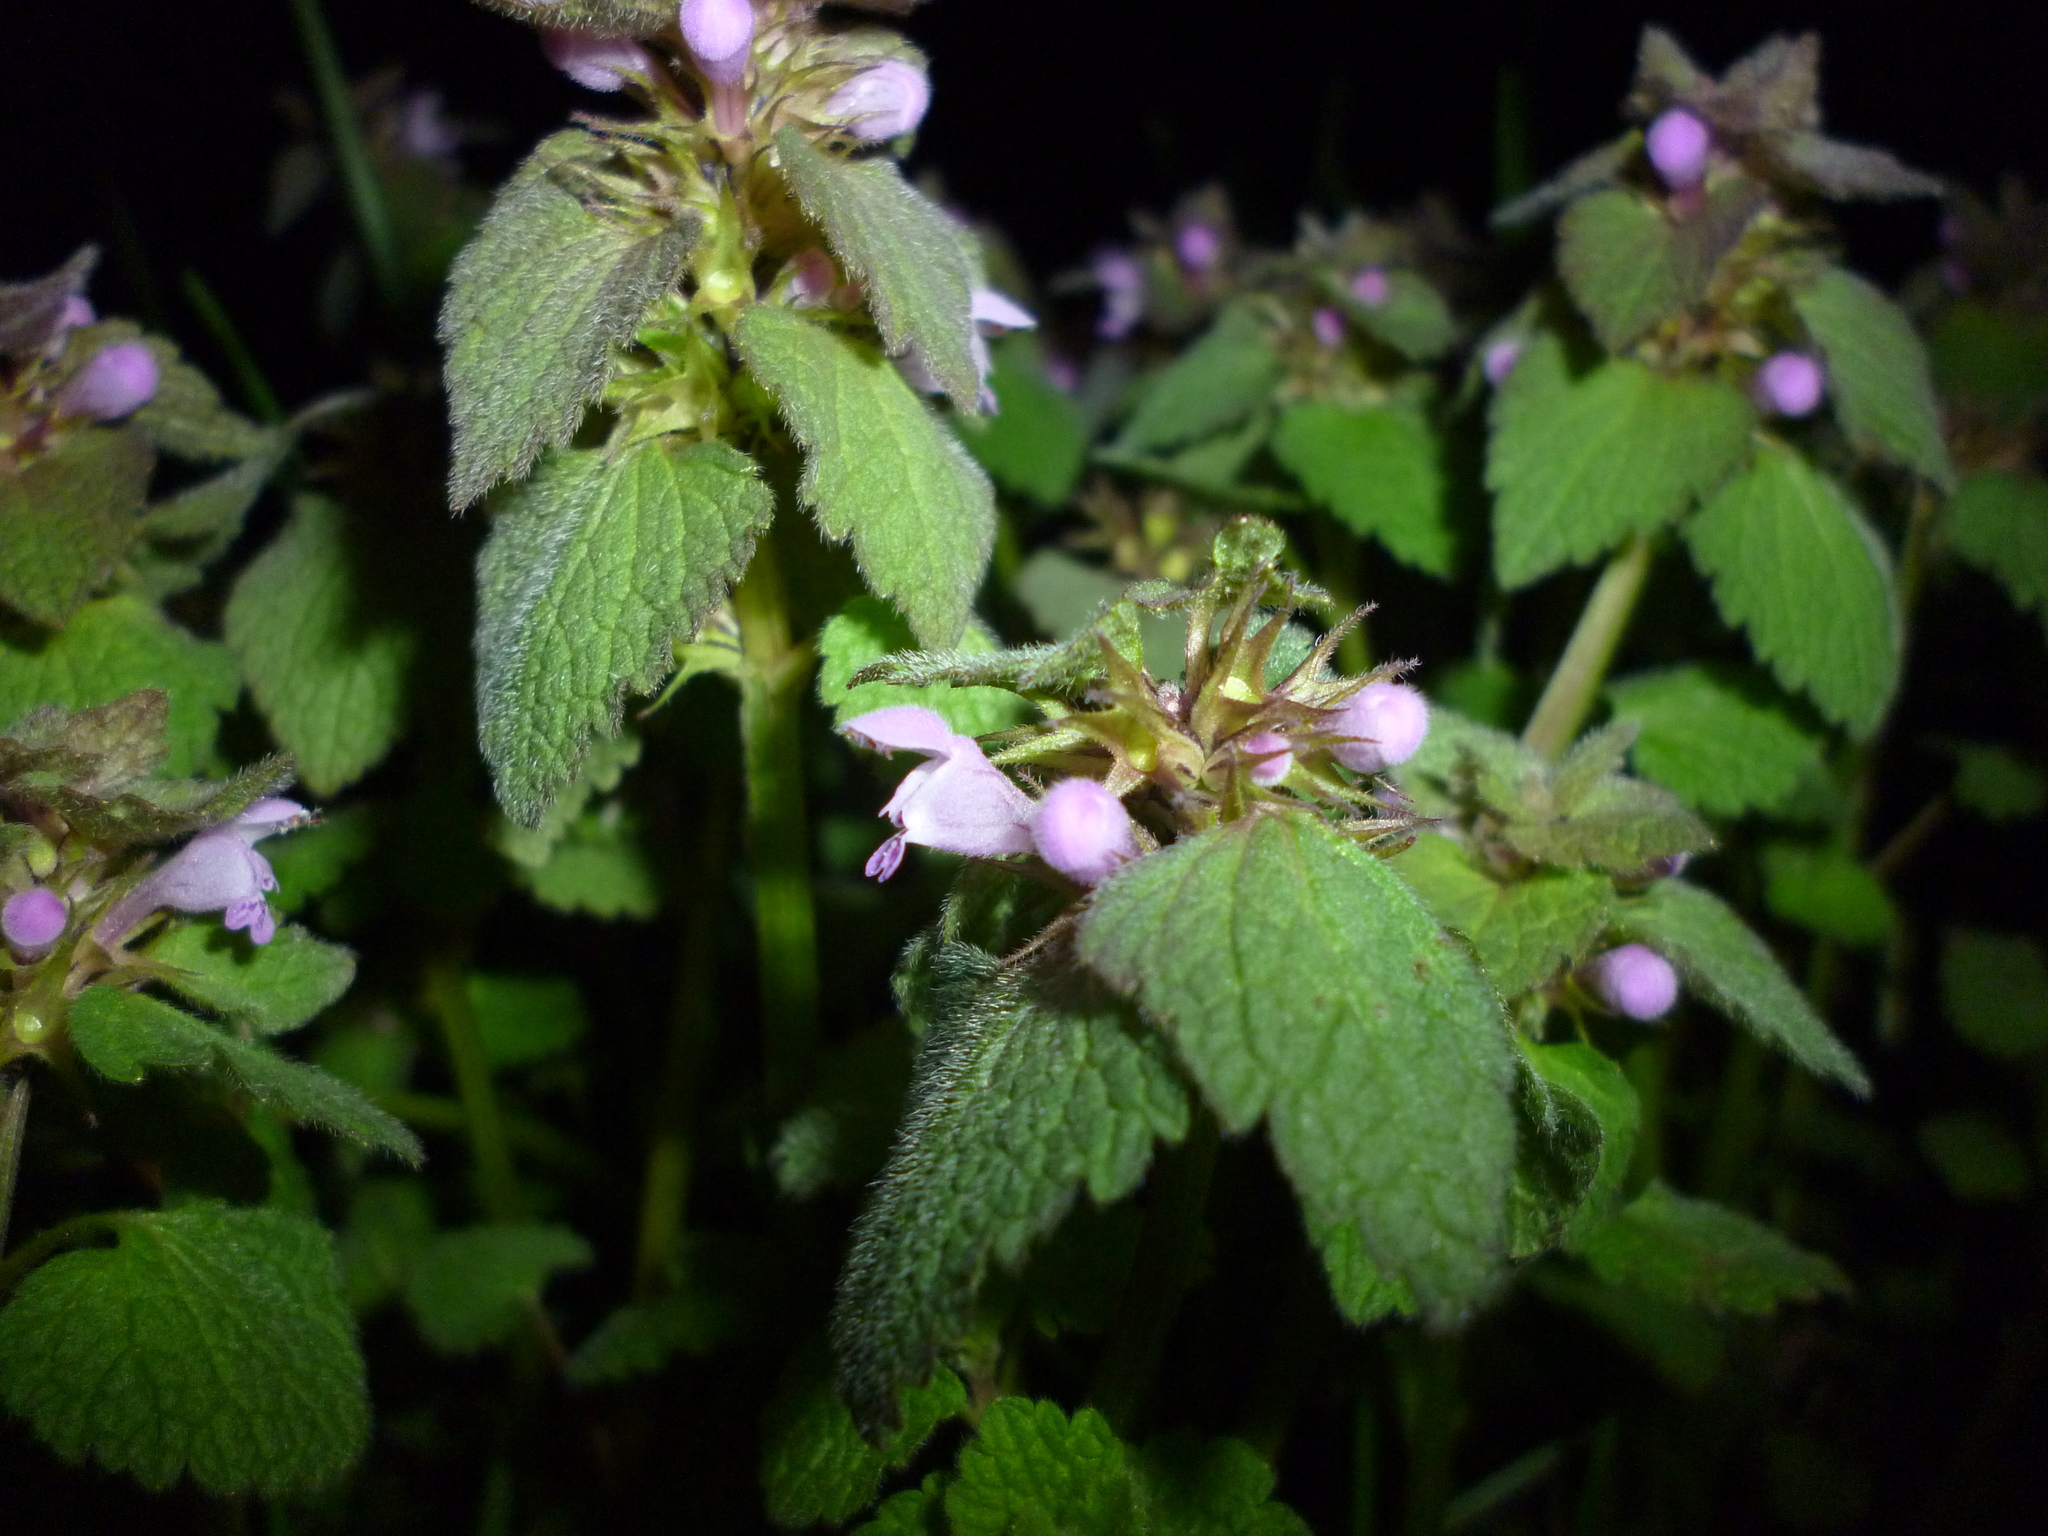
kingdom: Plantae
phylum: Tracheophyta
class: Magnoliopsida
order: Lamiales
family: Lamiaceae
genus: Lamium
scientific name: Lamium purpureum
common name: Red dead-nettle
